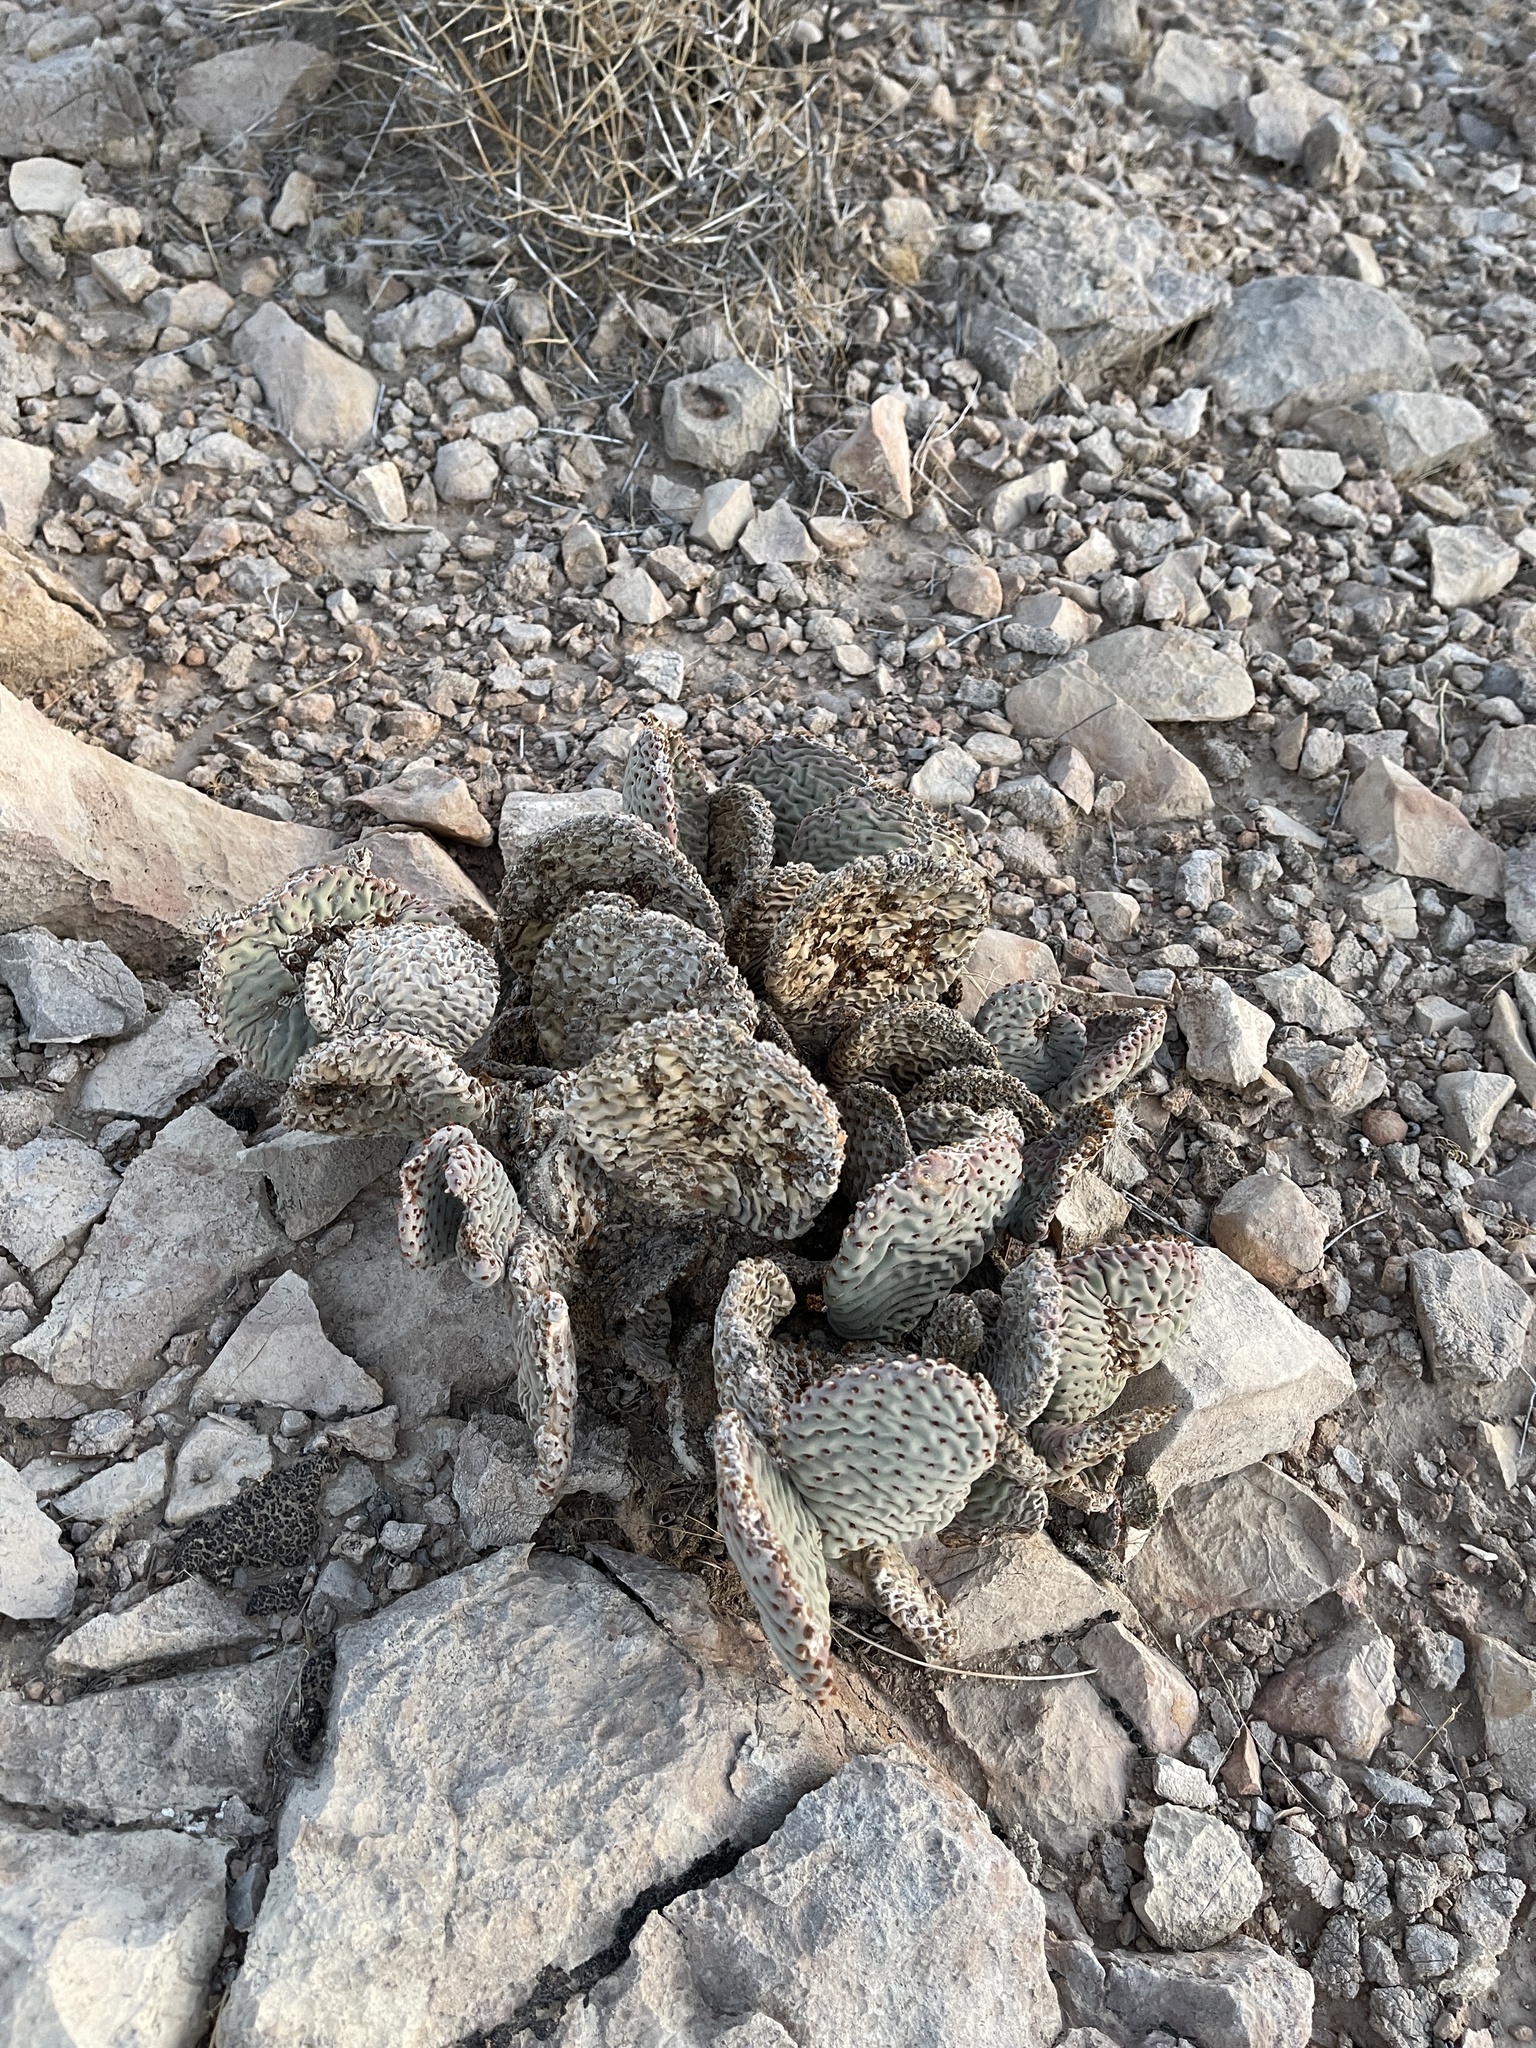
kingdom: Plantae
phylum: Tracheophyta
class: Magnoliopsida
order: Caryophyllales
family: Cactaceae
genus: Opuntia
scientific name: Opuntia basilaris
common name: Beavertail prickly-pear
